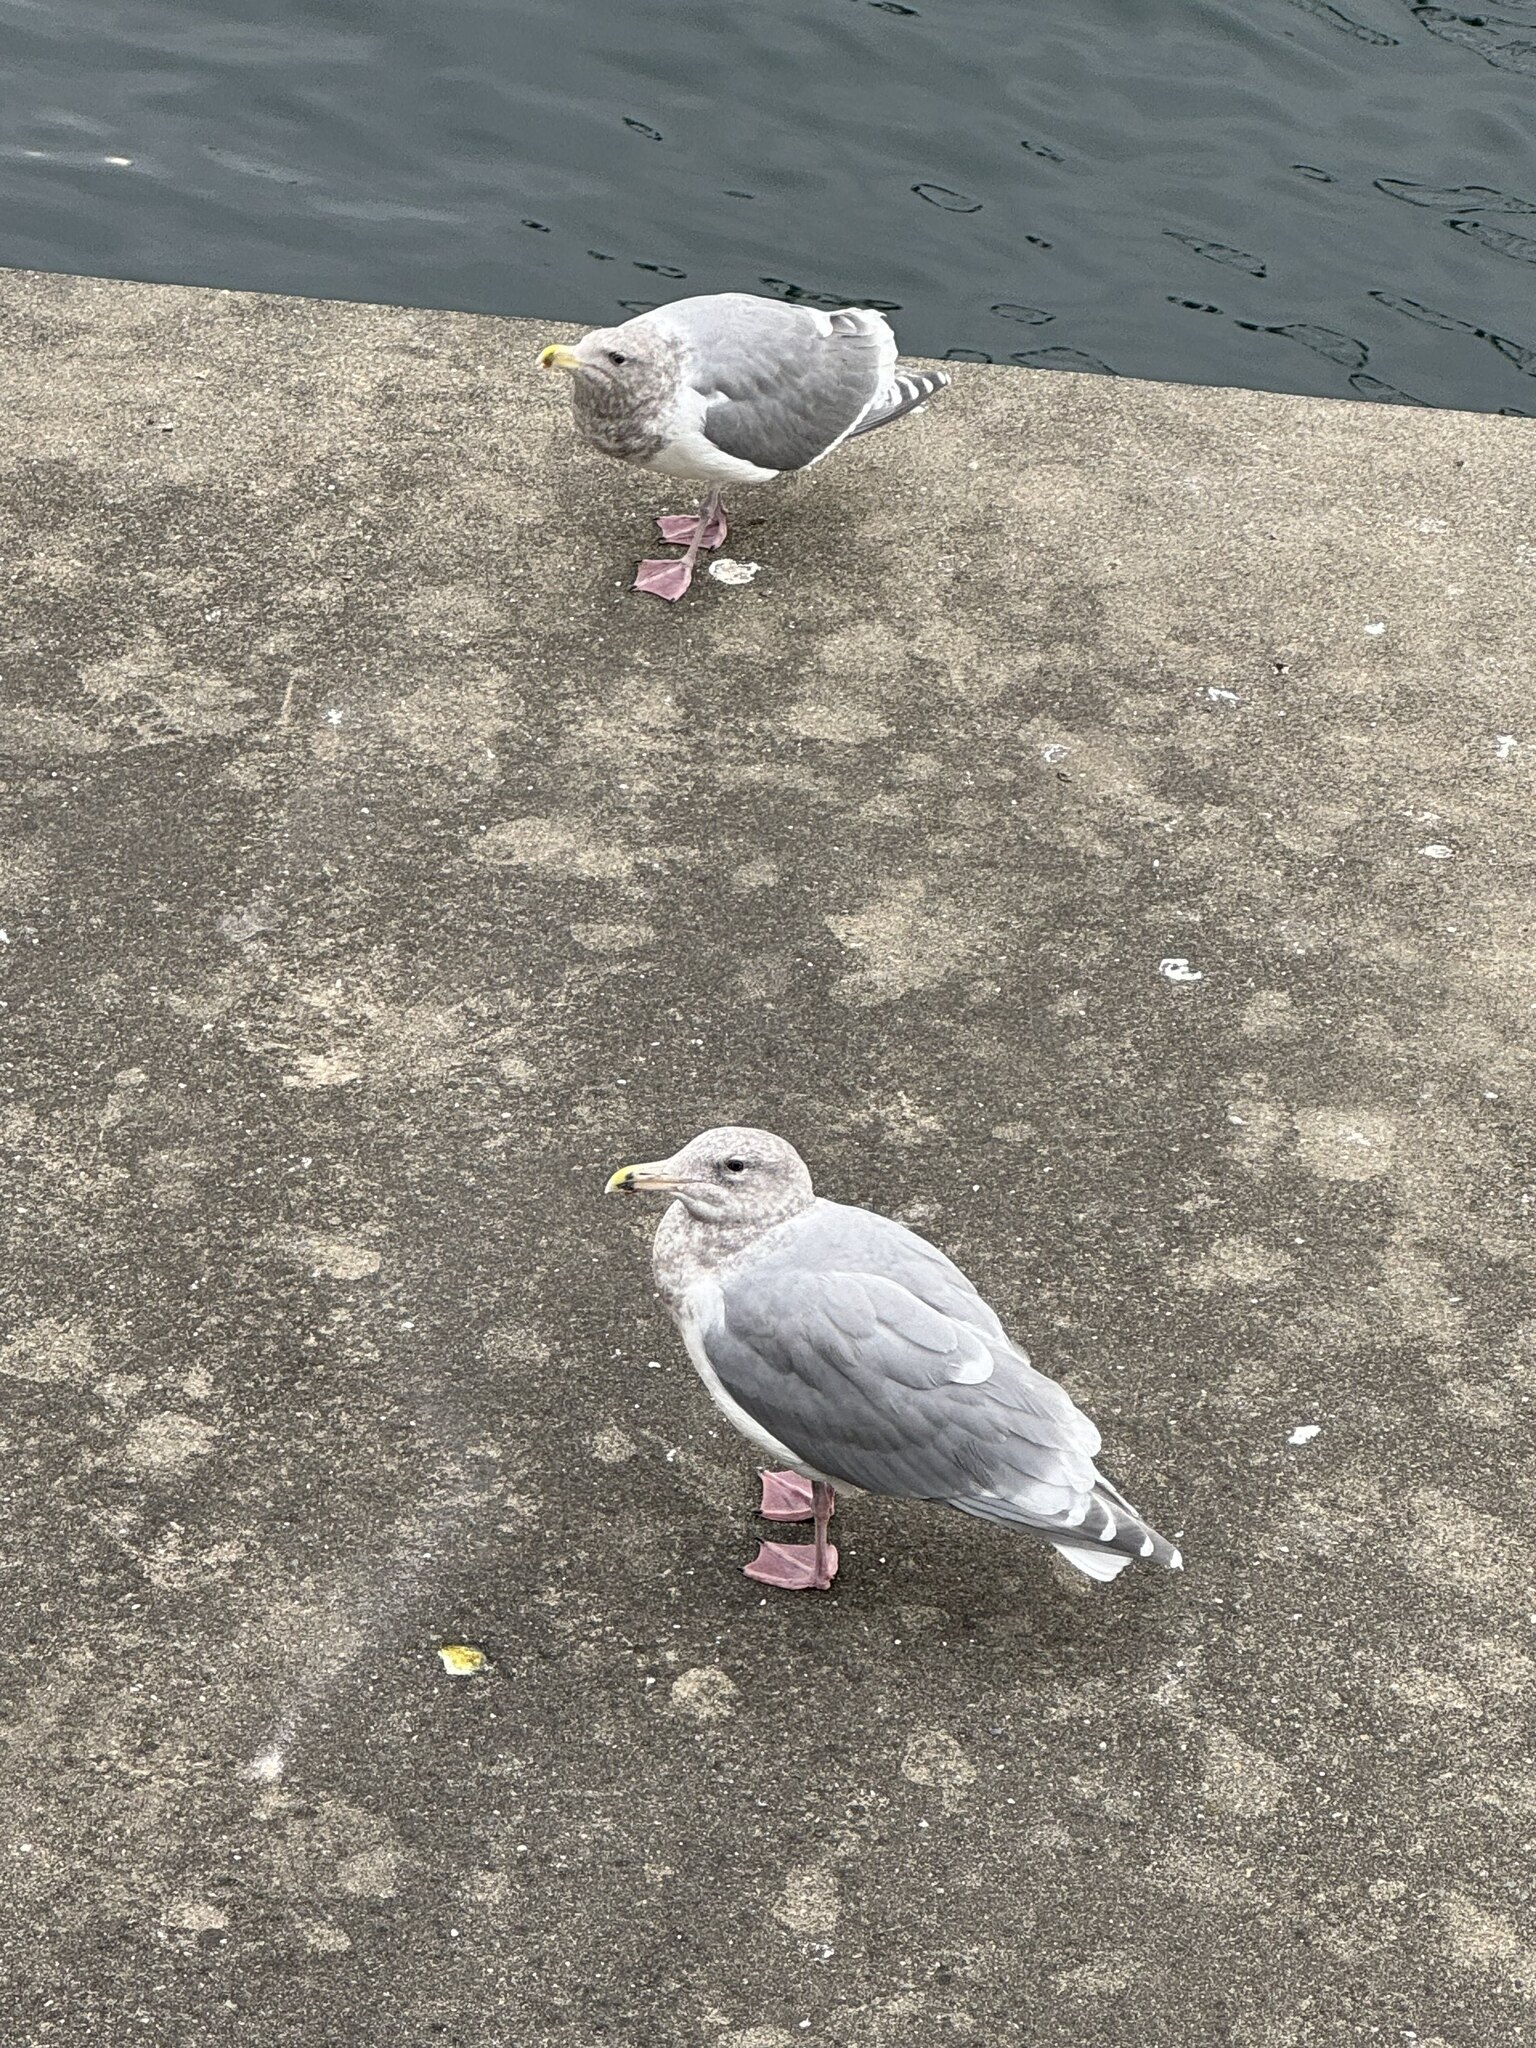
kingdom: Animalia
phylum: Chordata
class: Aves
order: Charadriiformes
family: Laridae
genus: Larus
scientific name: Larus glaucescens
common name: Glaucous-winged gull
